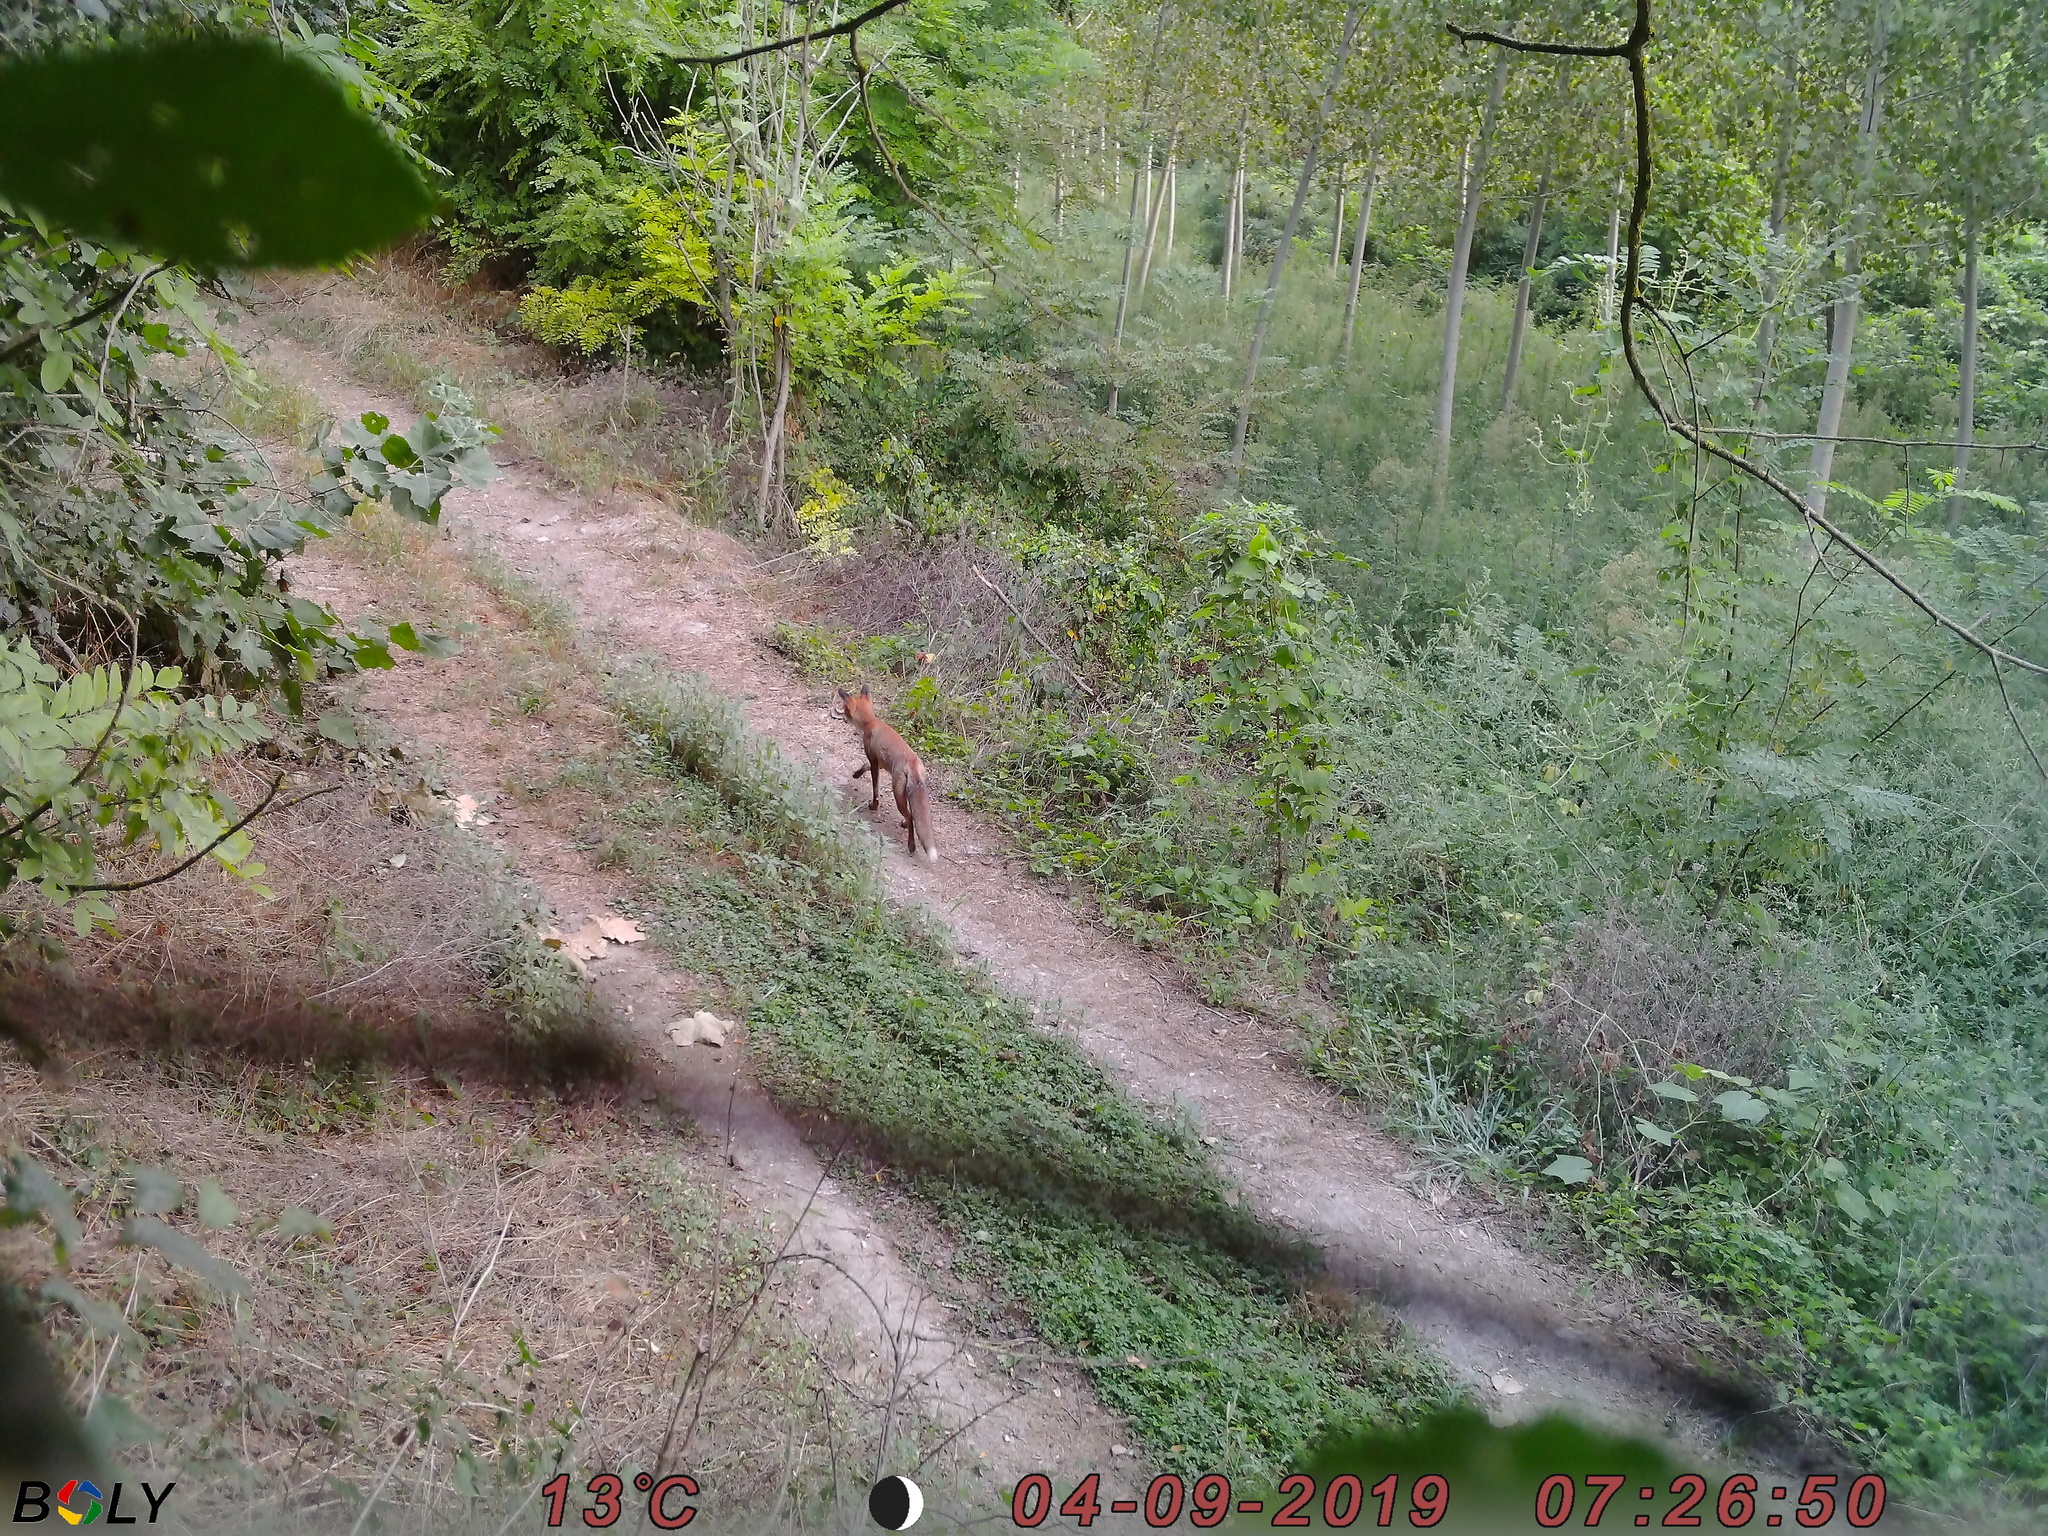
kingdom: Animalia
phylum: Chordata
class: Mammalia
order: Carnivora
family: Canidae
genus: Vulpes
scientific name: Vulpes vulpes
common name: Red fox
